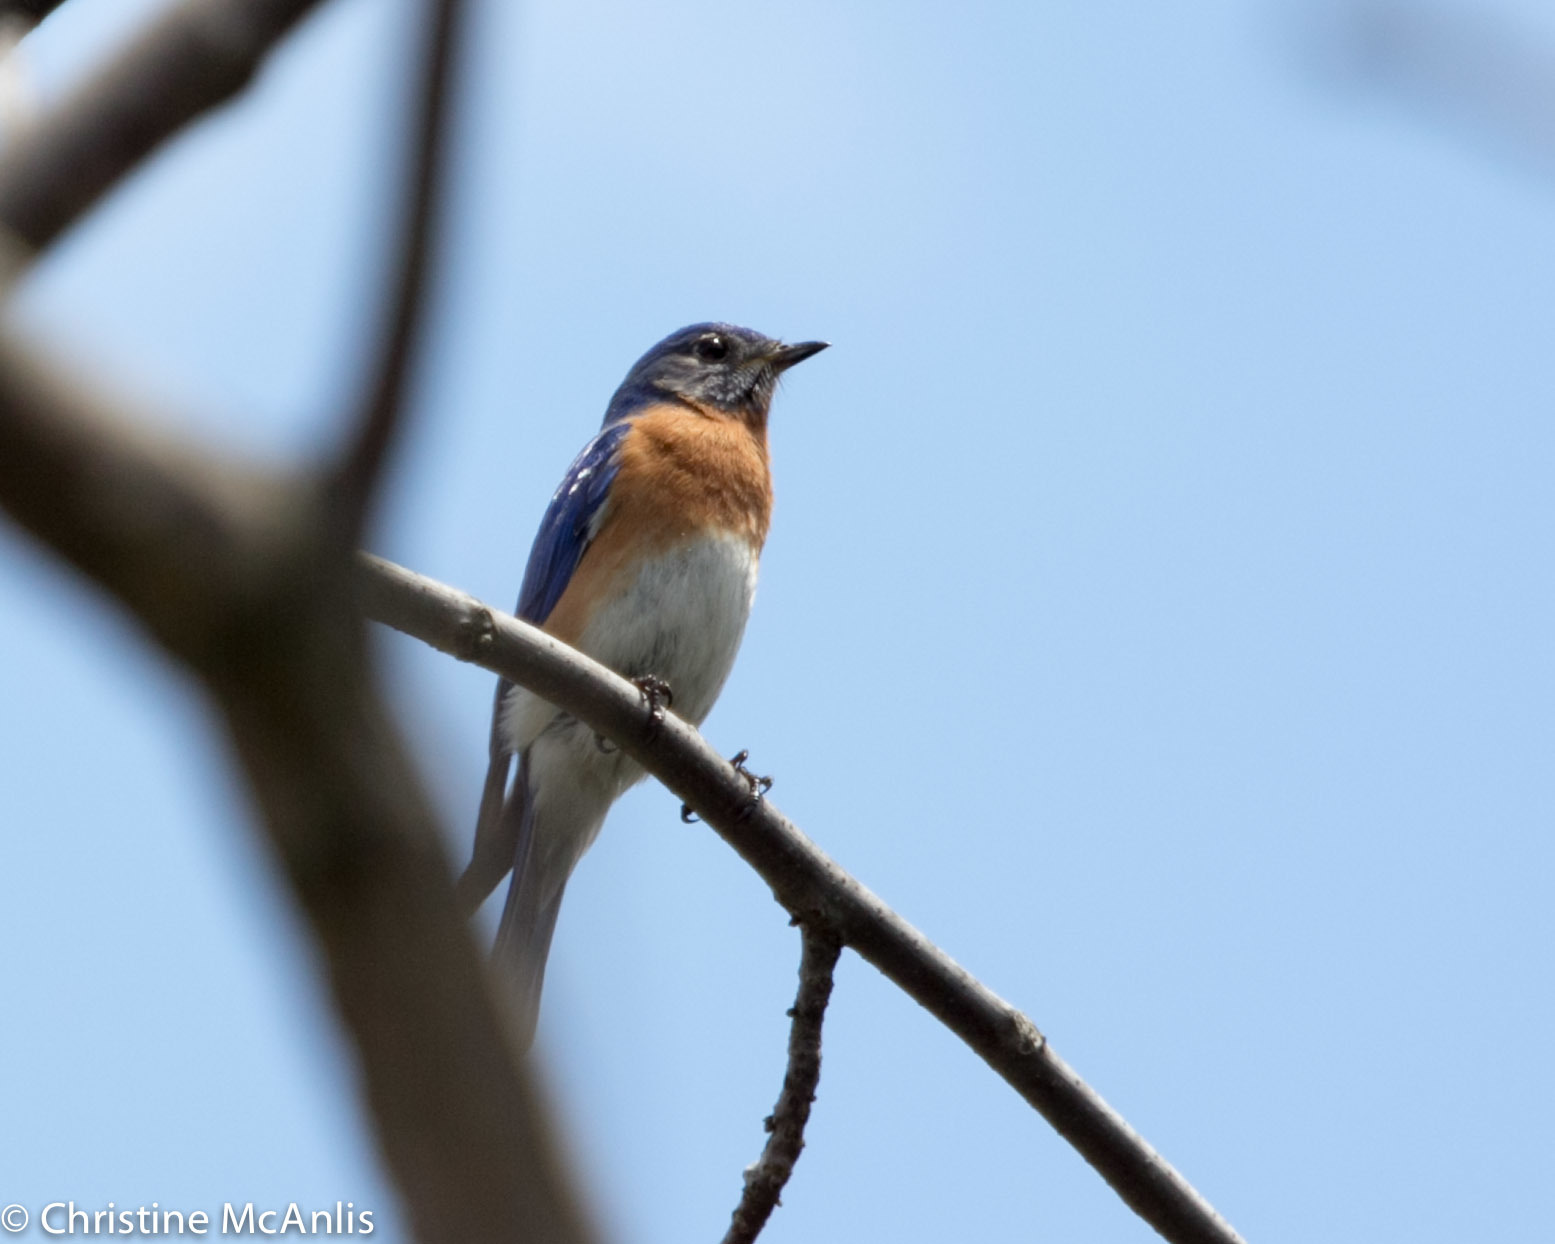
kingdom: Animalia
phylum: Chordata
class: Aves
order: Passeriformes
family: Turdidae
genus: Sialia
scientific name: Sialia sialis
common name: Eastern bluebird
